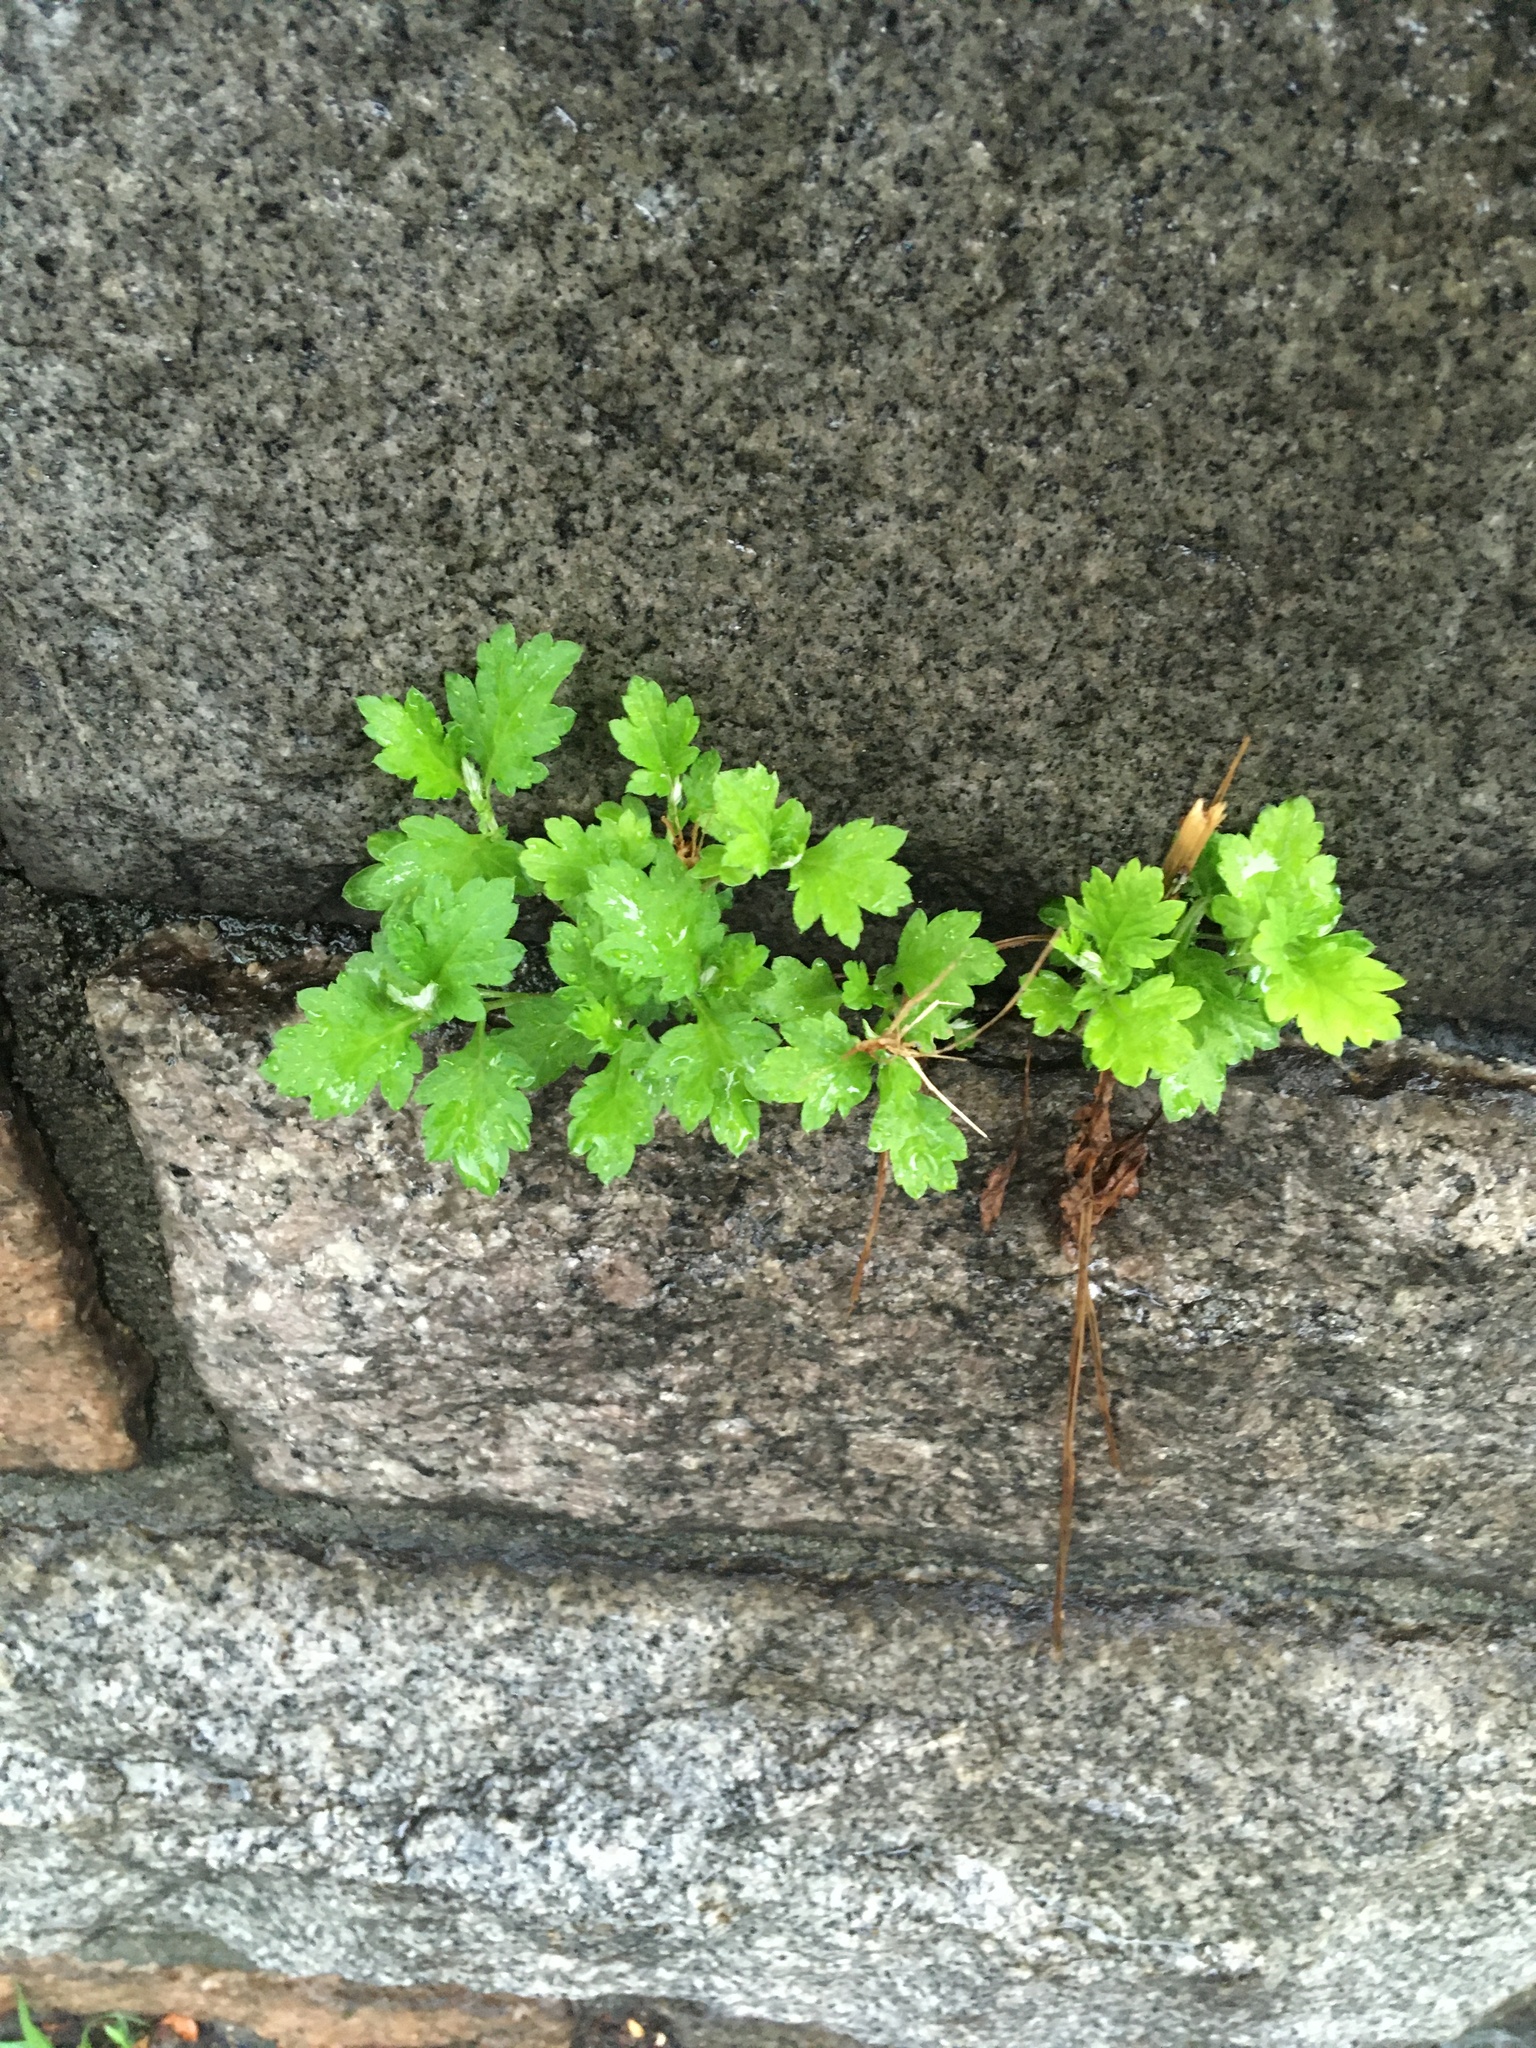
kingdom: Plantae
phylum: Tracheophyta
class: Magnoliopsida
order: Asterales
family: Asteraceae
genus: Artemisia
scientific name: Artemisia vulgaris
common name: Mugwort
